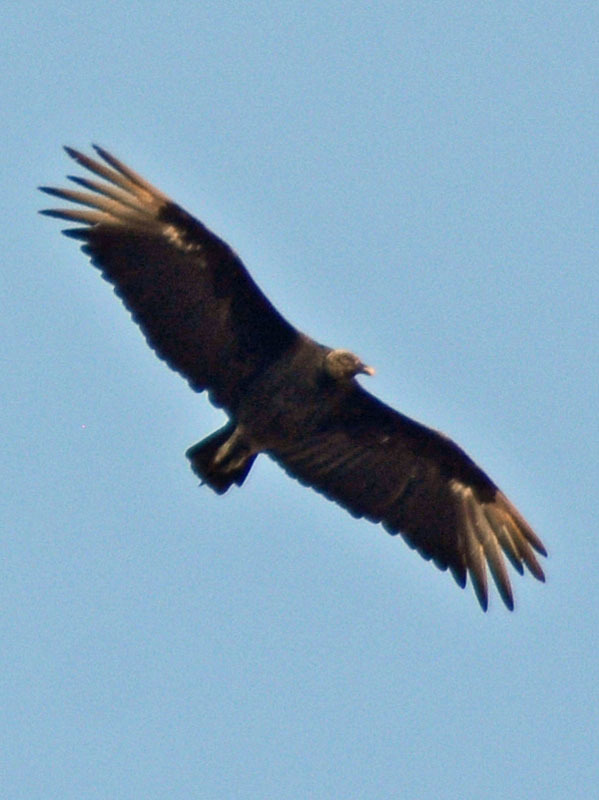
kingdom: Animalia
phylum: Chordata
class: Aves
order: Accipitriformes
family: Cathartidae
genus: Coragyps
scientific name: Coragyps atratus
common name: Black vulture
